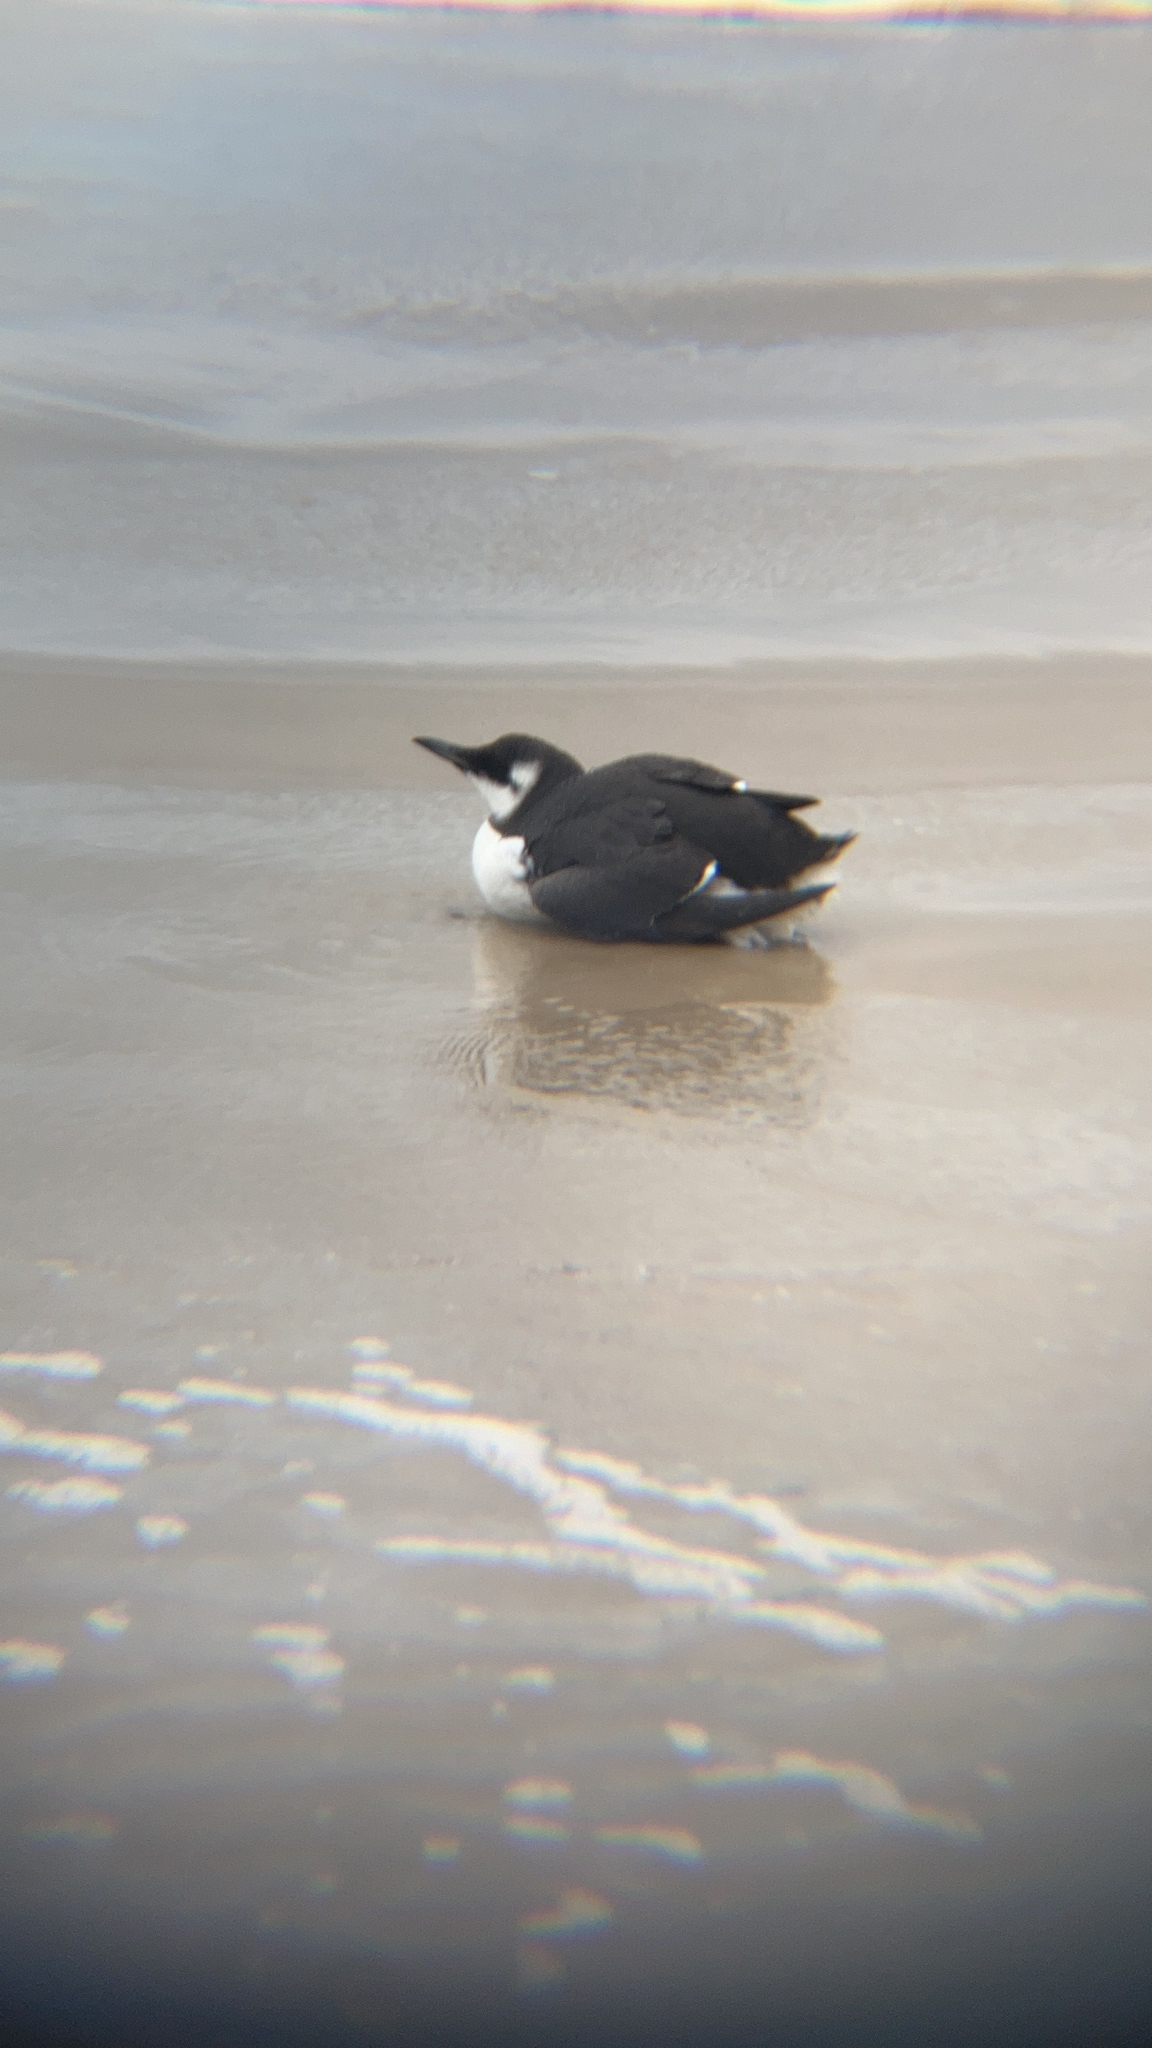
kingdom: Animalia
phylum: Chordata
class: Aves
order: Charadriiformes
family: Alcidae
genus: Uria
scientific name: Uria aalge
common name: Common murre
